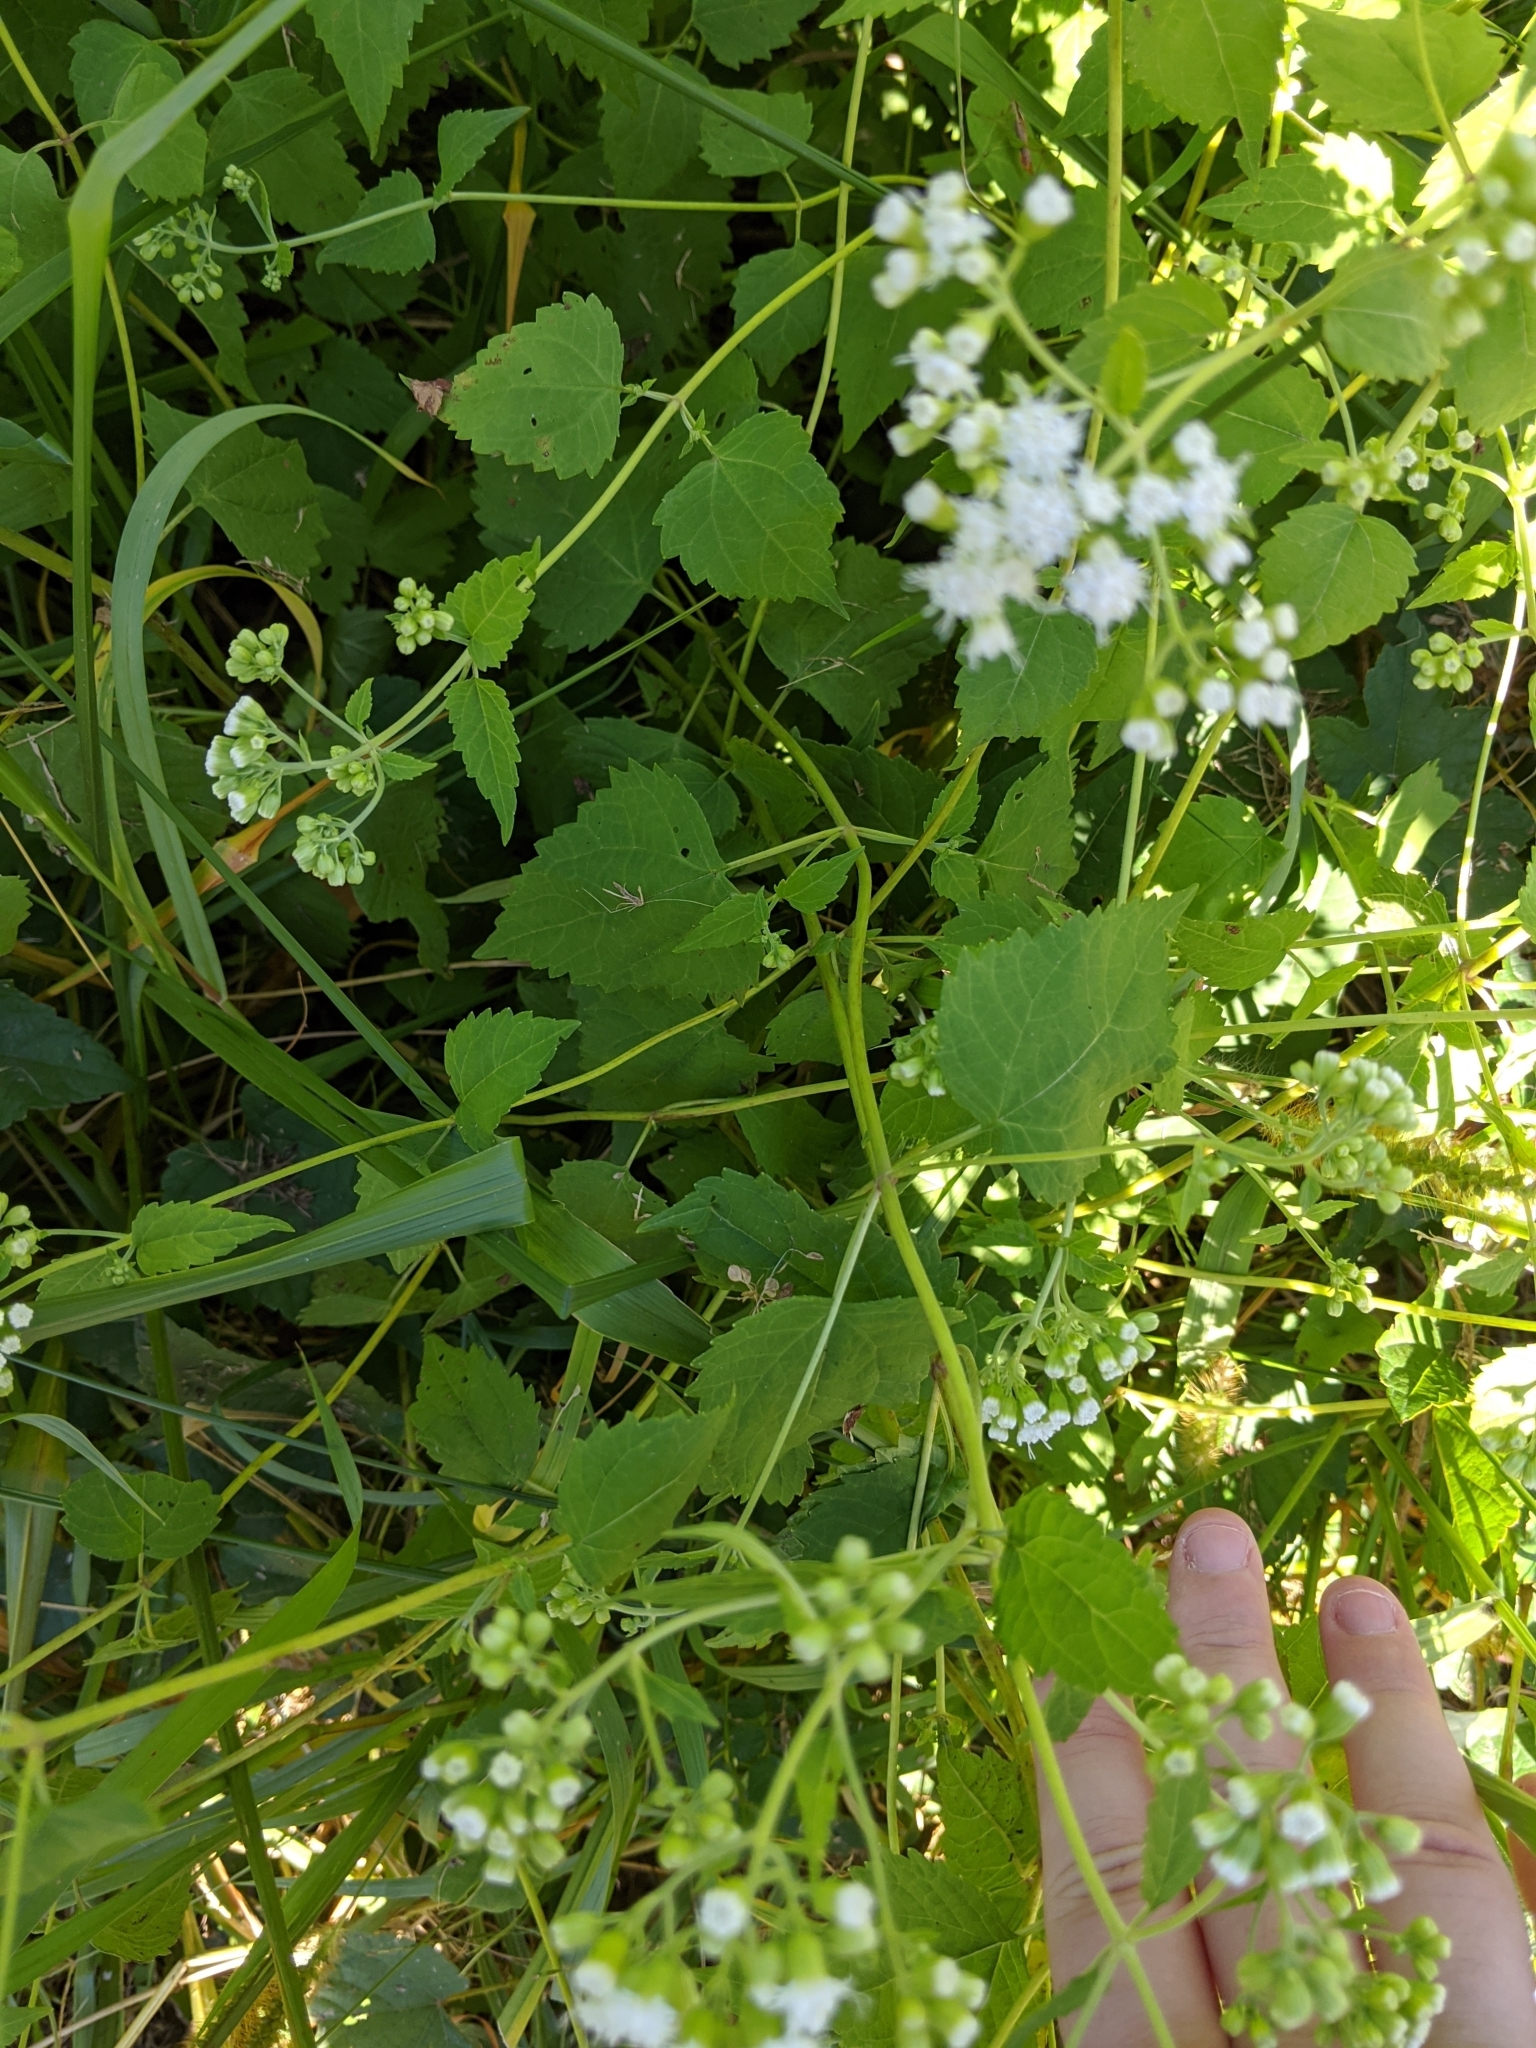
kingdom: Plantae
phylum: Tracheophyta
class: Magnoliopsida
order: Asterales
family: Asteraceae
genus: Ageratina
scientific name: Ageratina altissima
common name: White snakeroot
